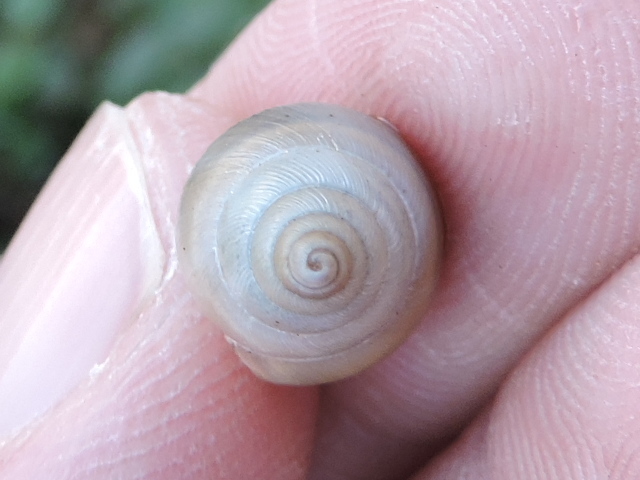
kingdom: Animalia
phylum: Mollusca
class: Gastropoda
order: Stylommatophora
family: Bulimulidae
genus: Rabdotus
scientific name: Rabdotus mooreanus
